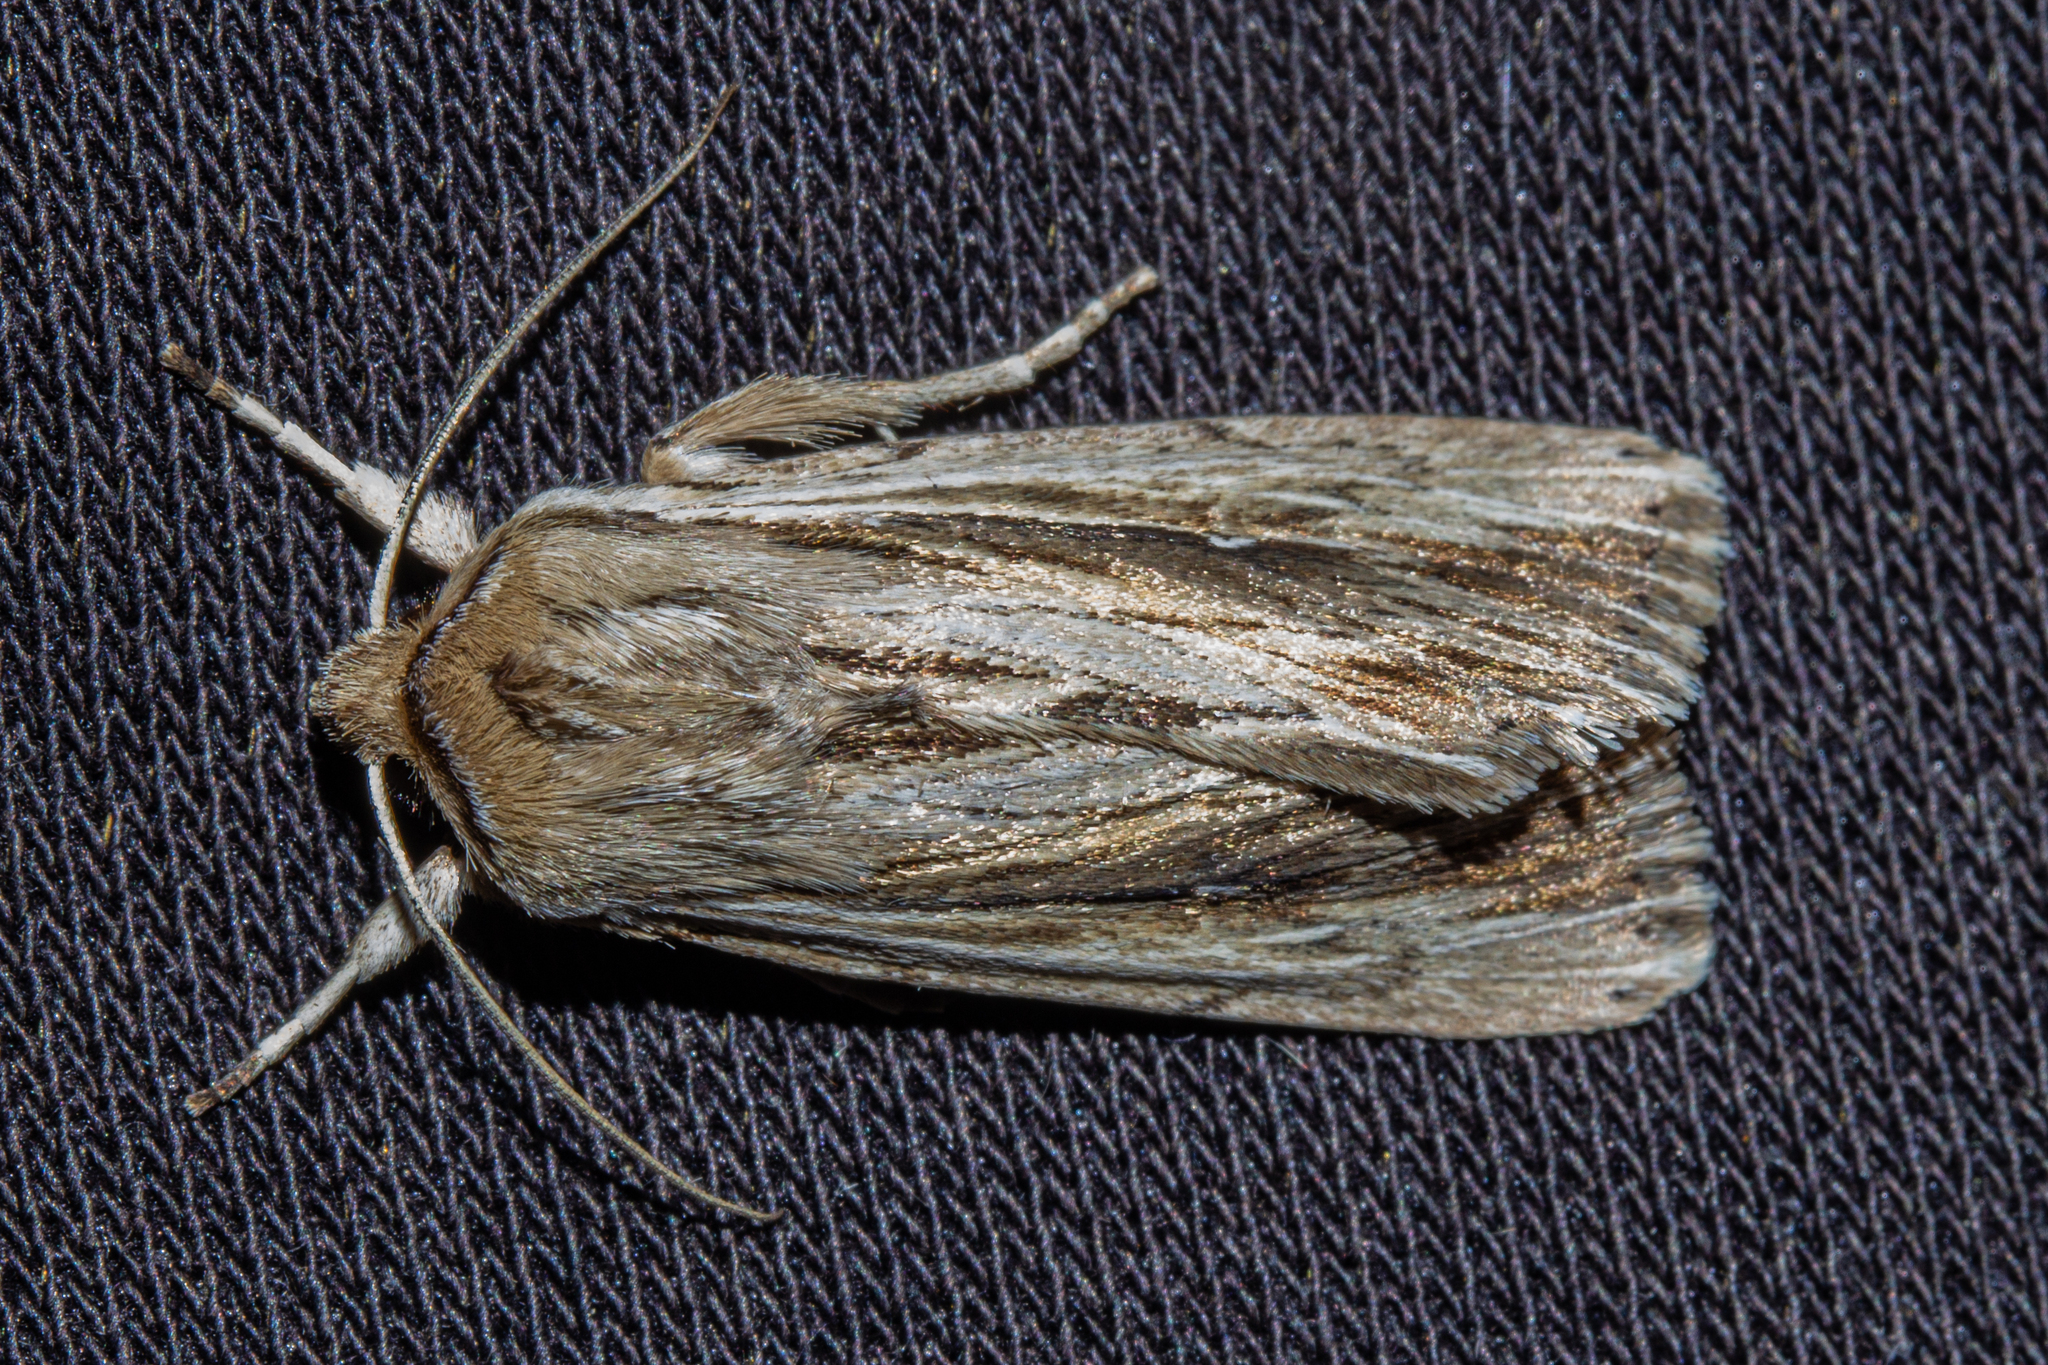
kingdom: Animalia
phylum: Arthropoda
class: Insecta
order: Lepidoptera
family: Noctuidae
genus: Persectania
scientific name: Persectania aversa
